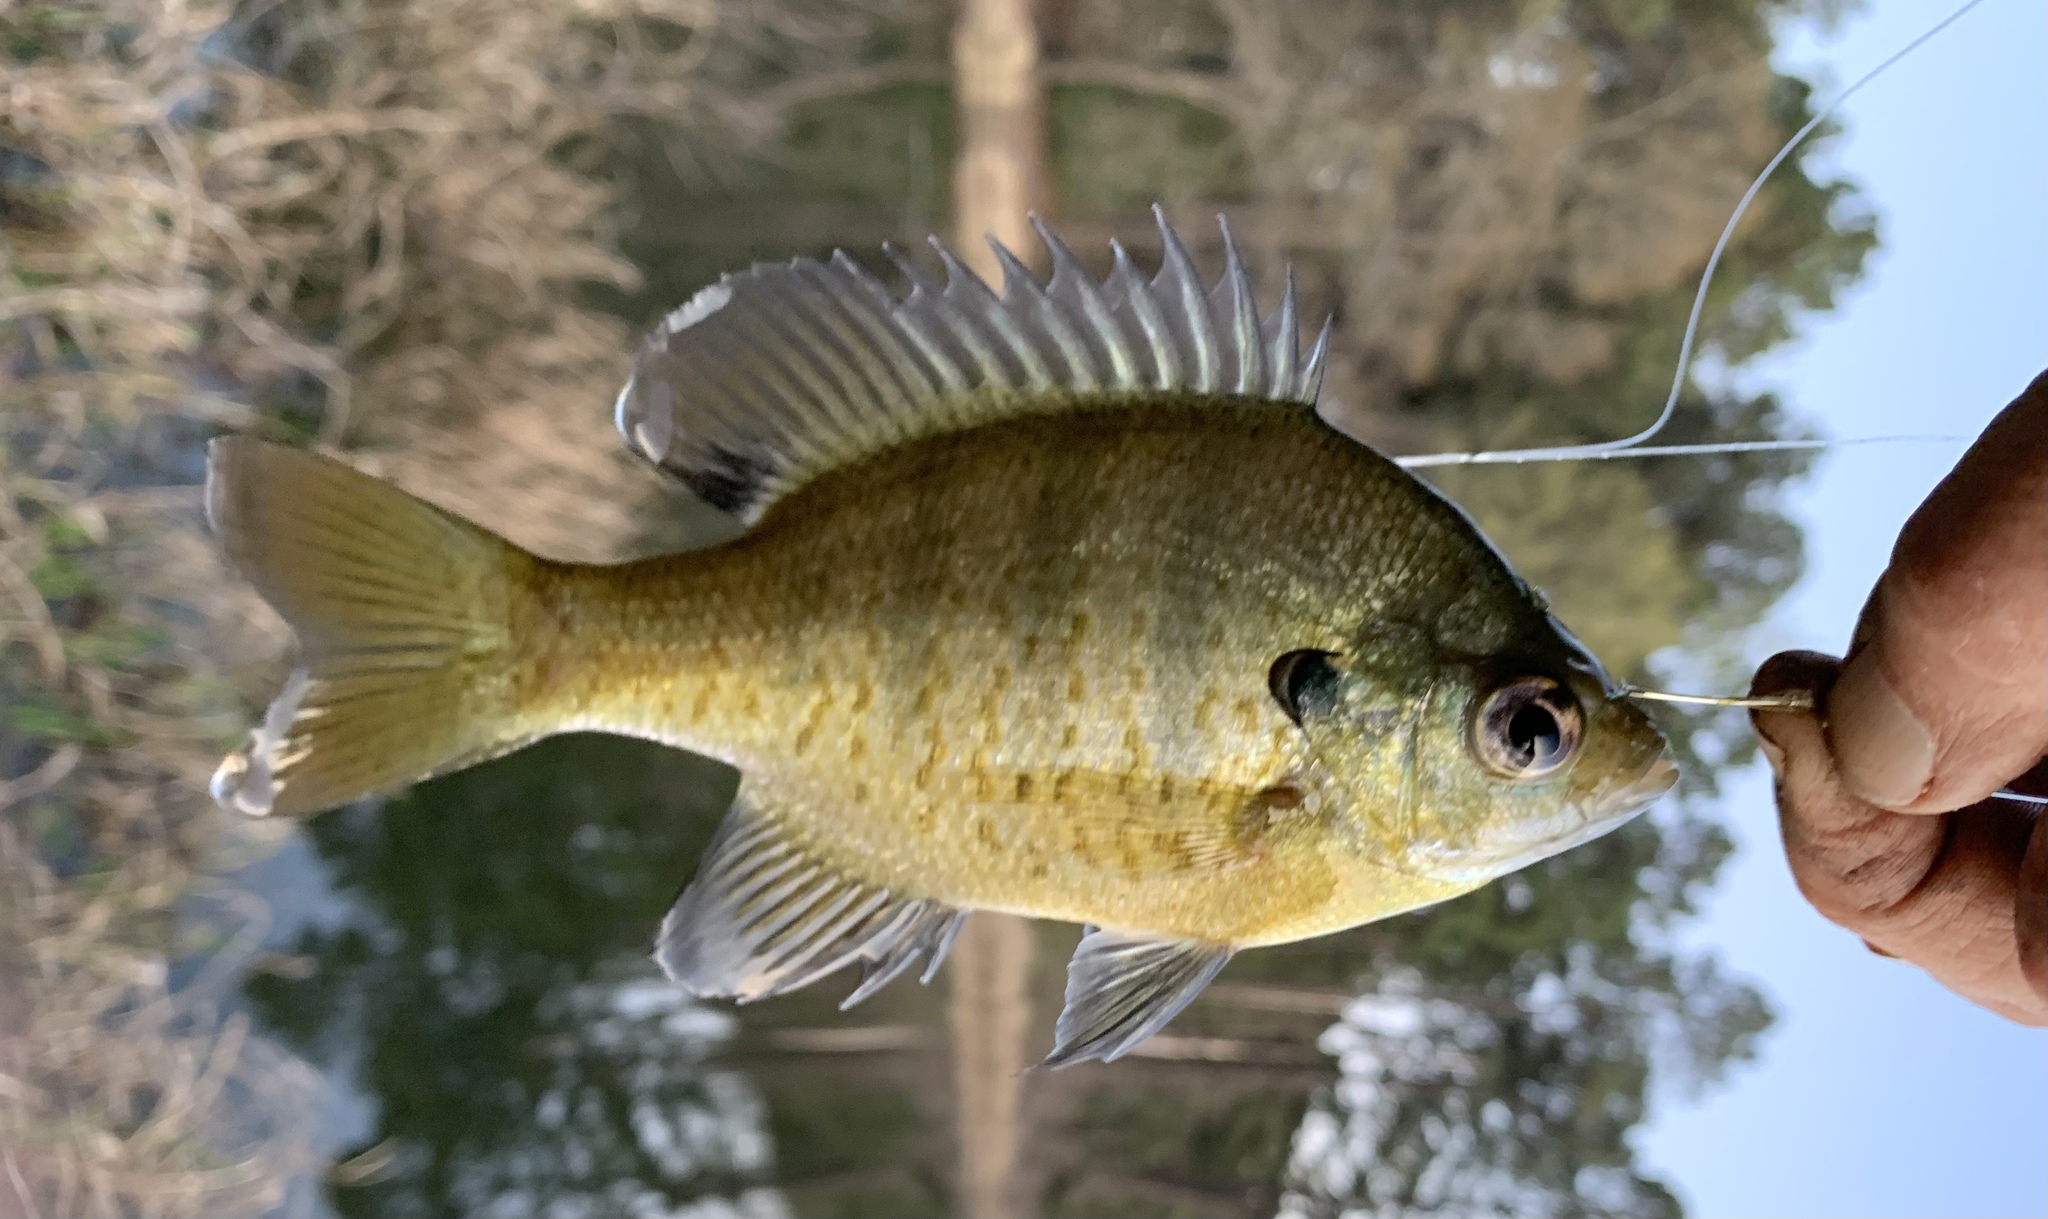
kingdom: Animalia
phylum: Chordata
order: Perciformes
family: Centrarchidae
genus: Lepomis
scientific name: Lepomis macrochirus
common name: Bluegill
